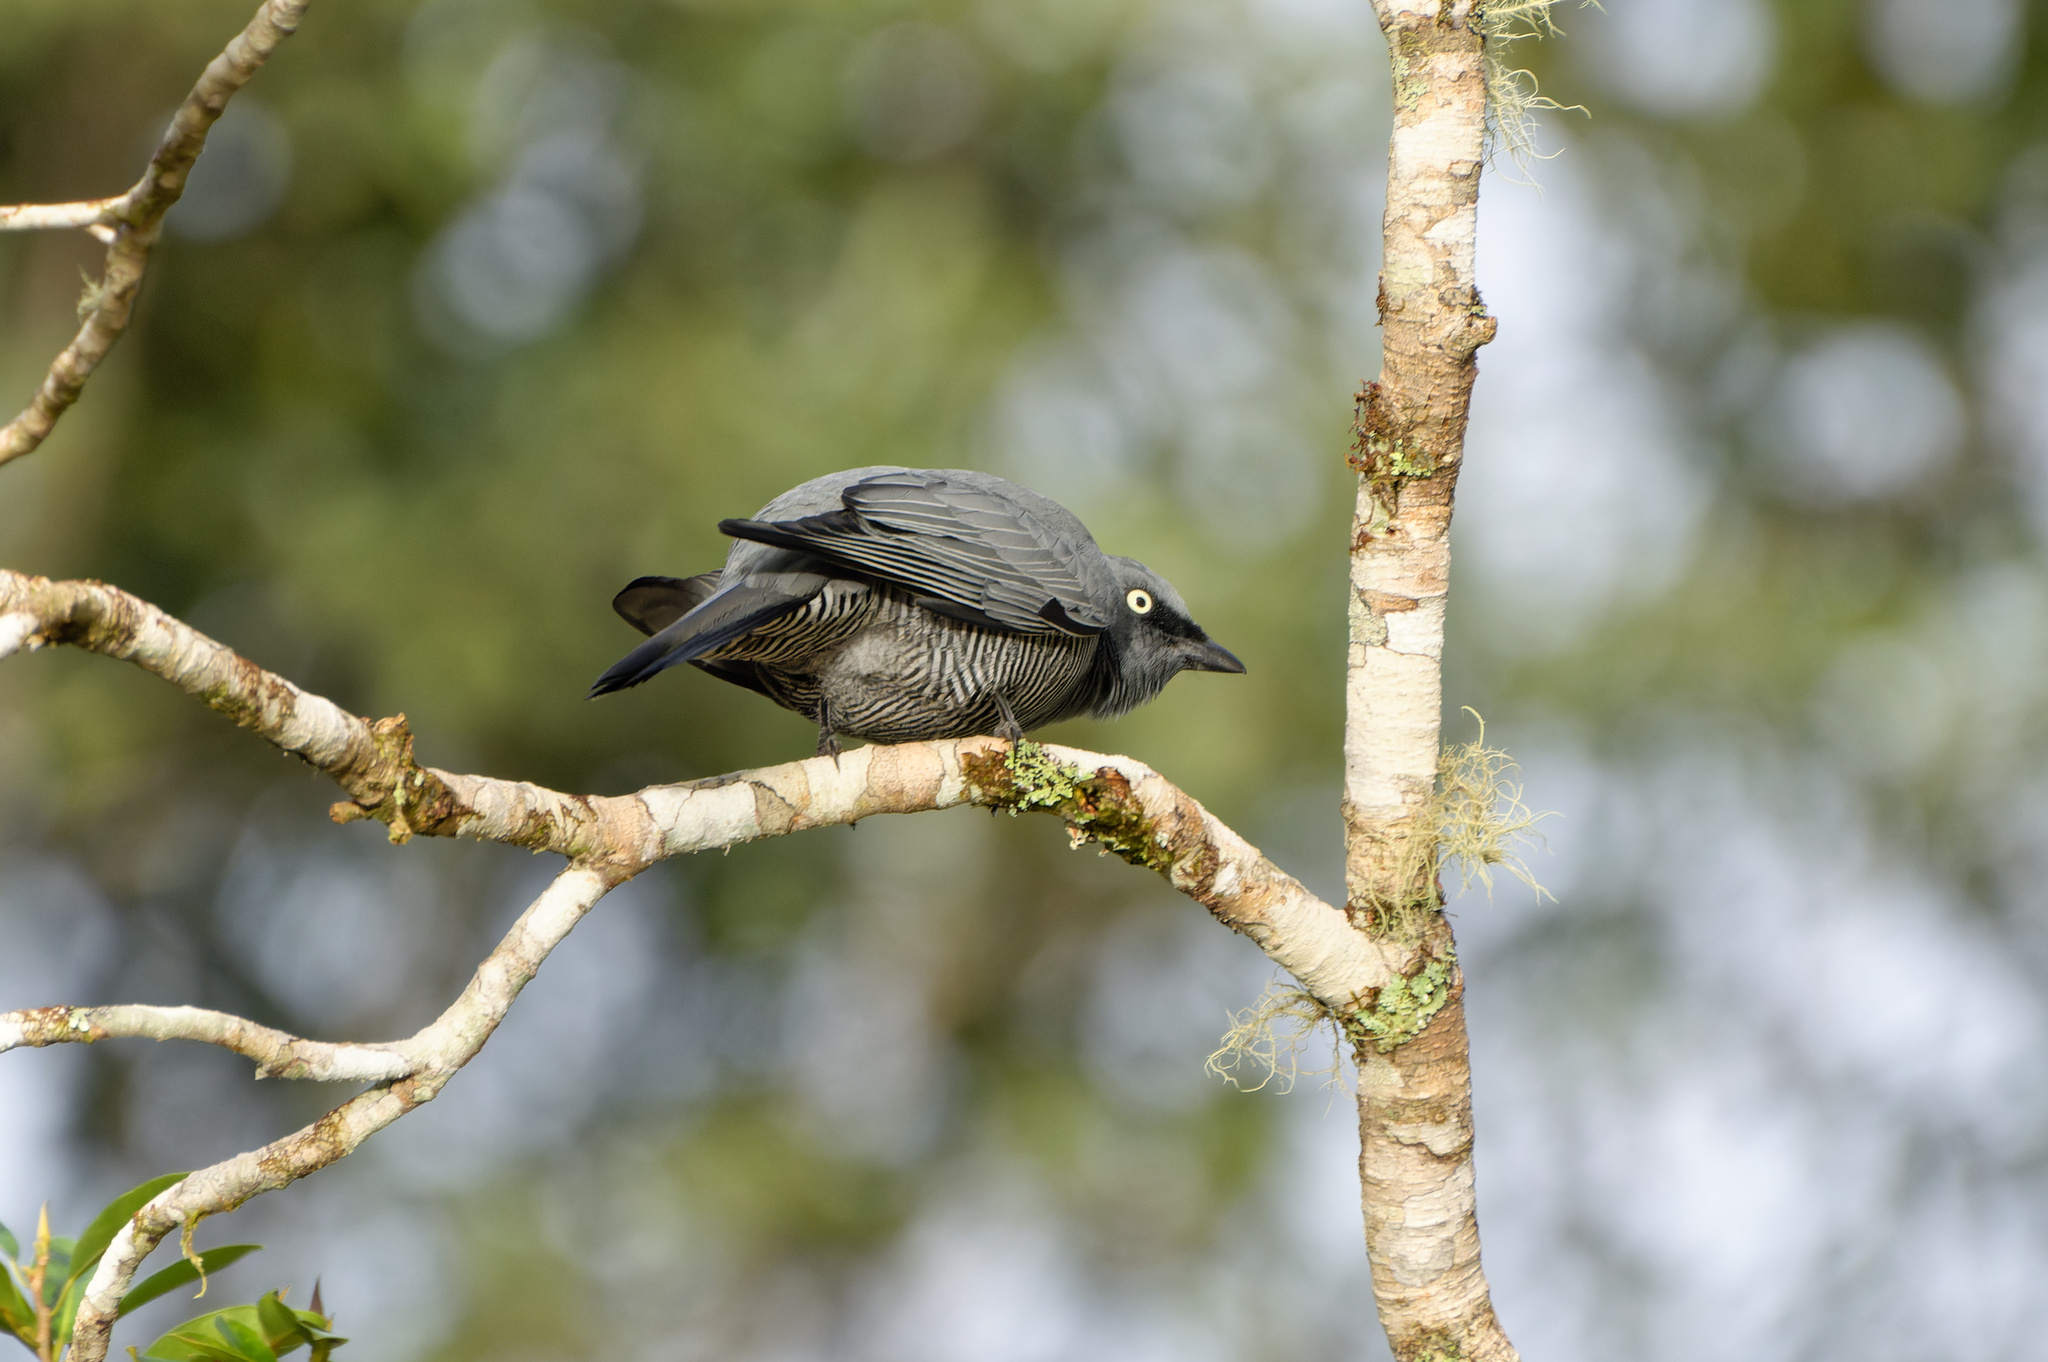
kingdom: Animalia
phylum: Chordata
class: Aves
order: Passeriformes
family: Campephagidae
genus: Coracina
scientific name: Coracina lineata
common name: Barred cuckooshrike
